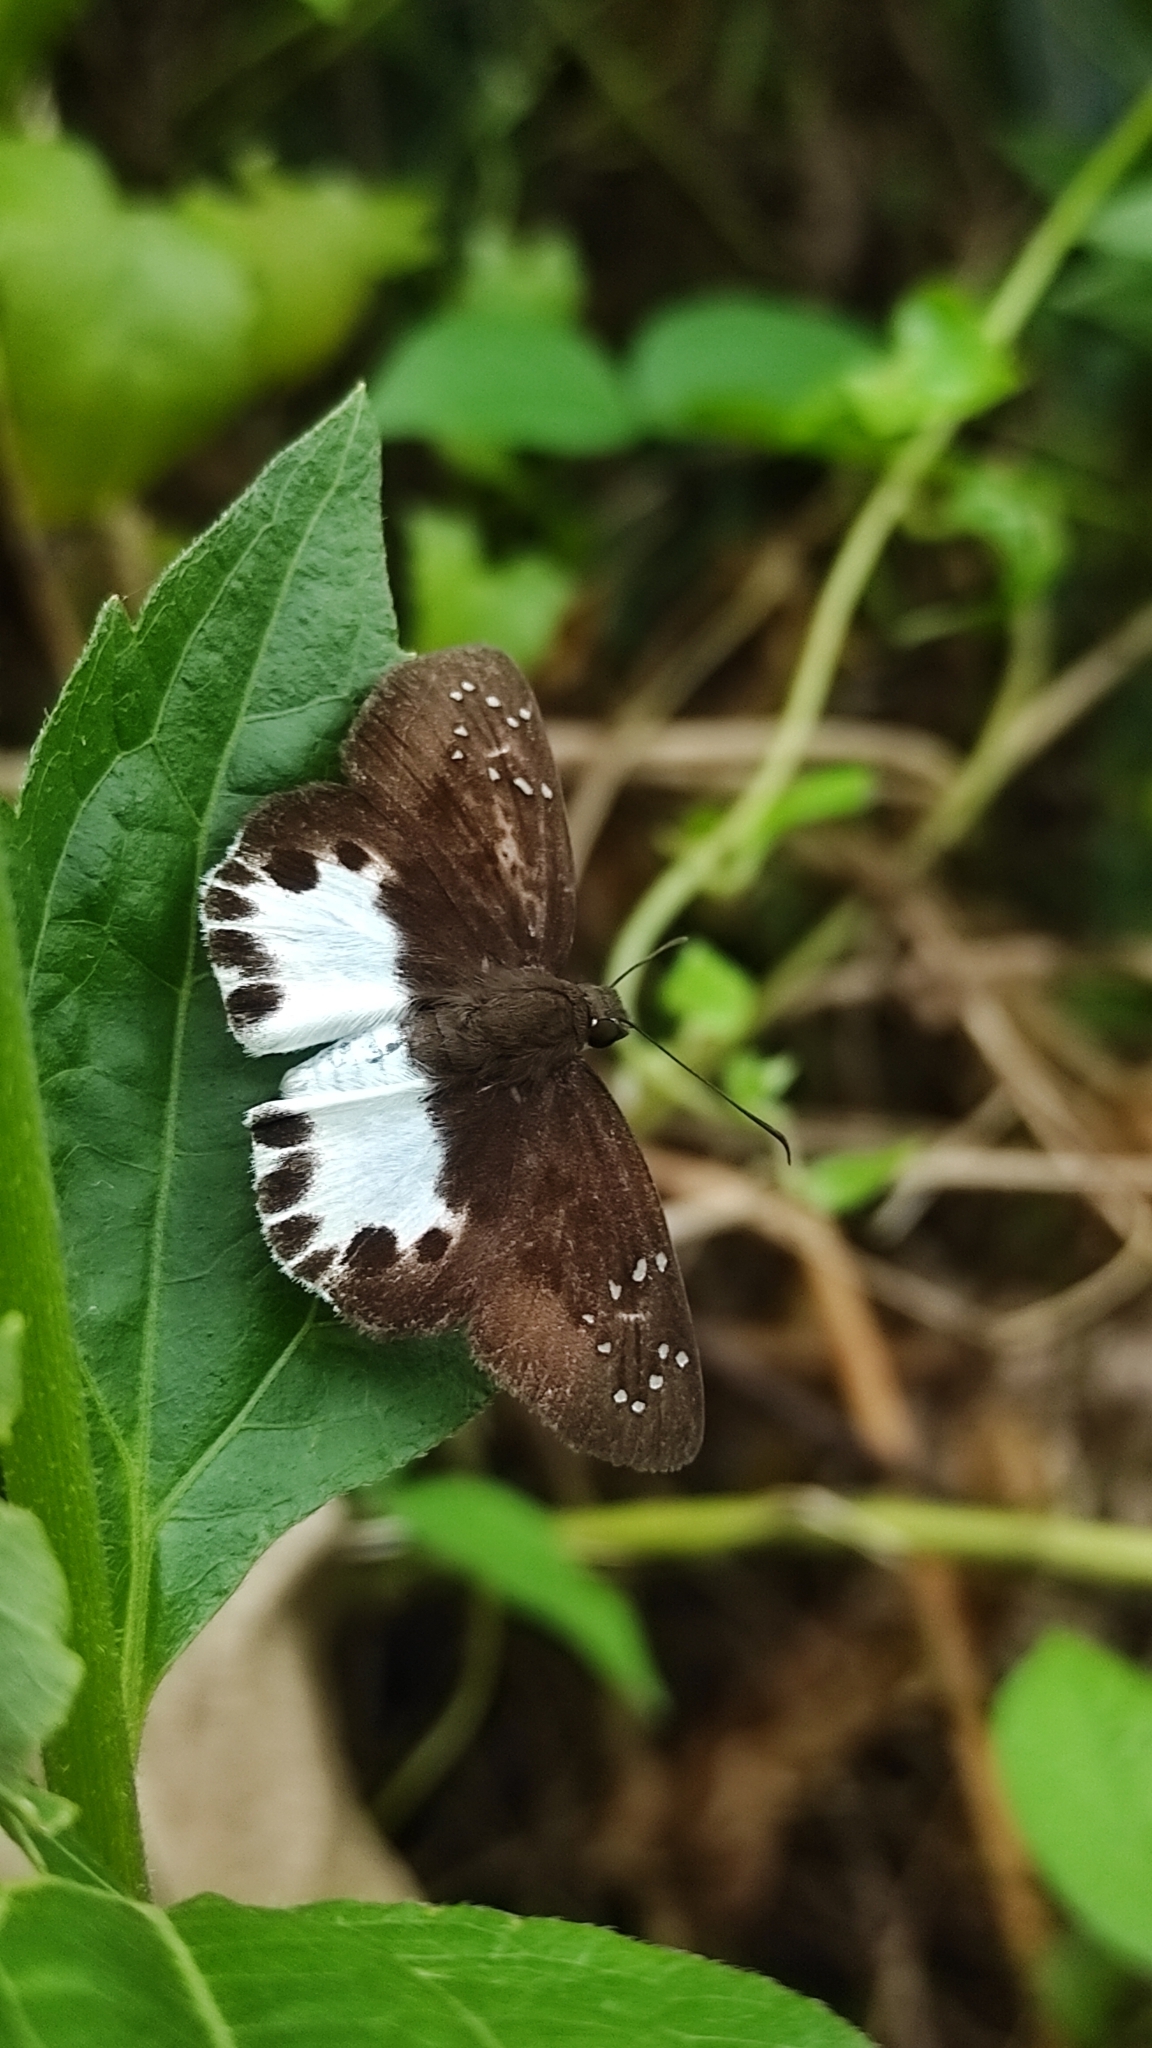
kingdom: Animalia
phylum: Arthropoda
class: Insecta
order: Lepidoptera
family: Hesperiidae
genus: Tagiades
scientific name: Tagiades litigiosa
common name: Water snow flat
